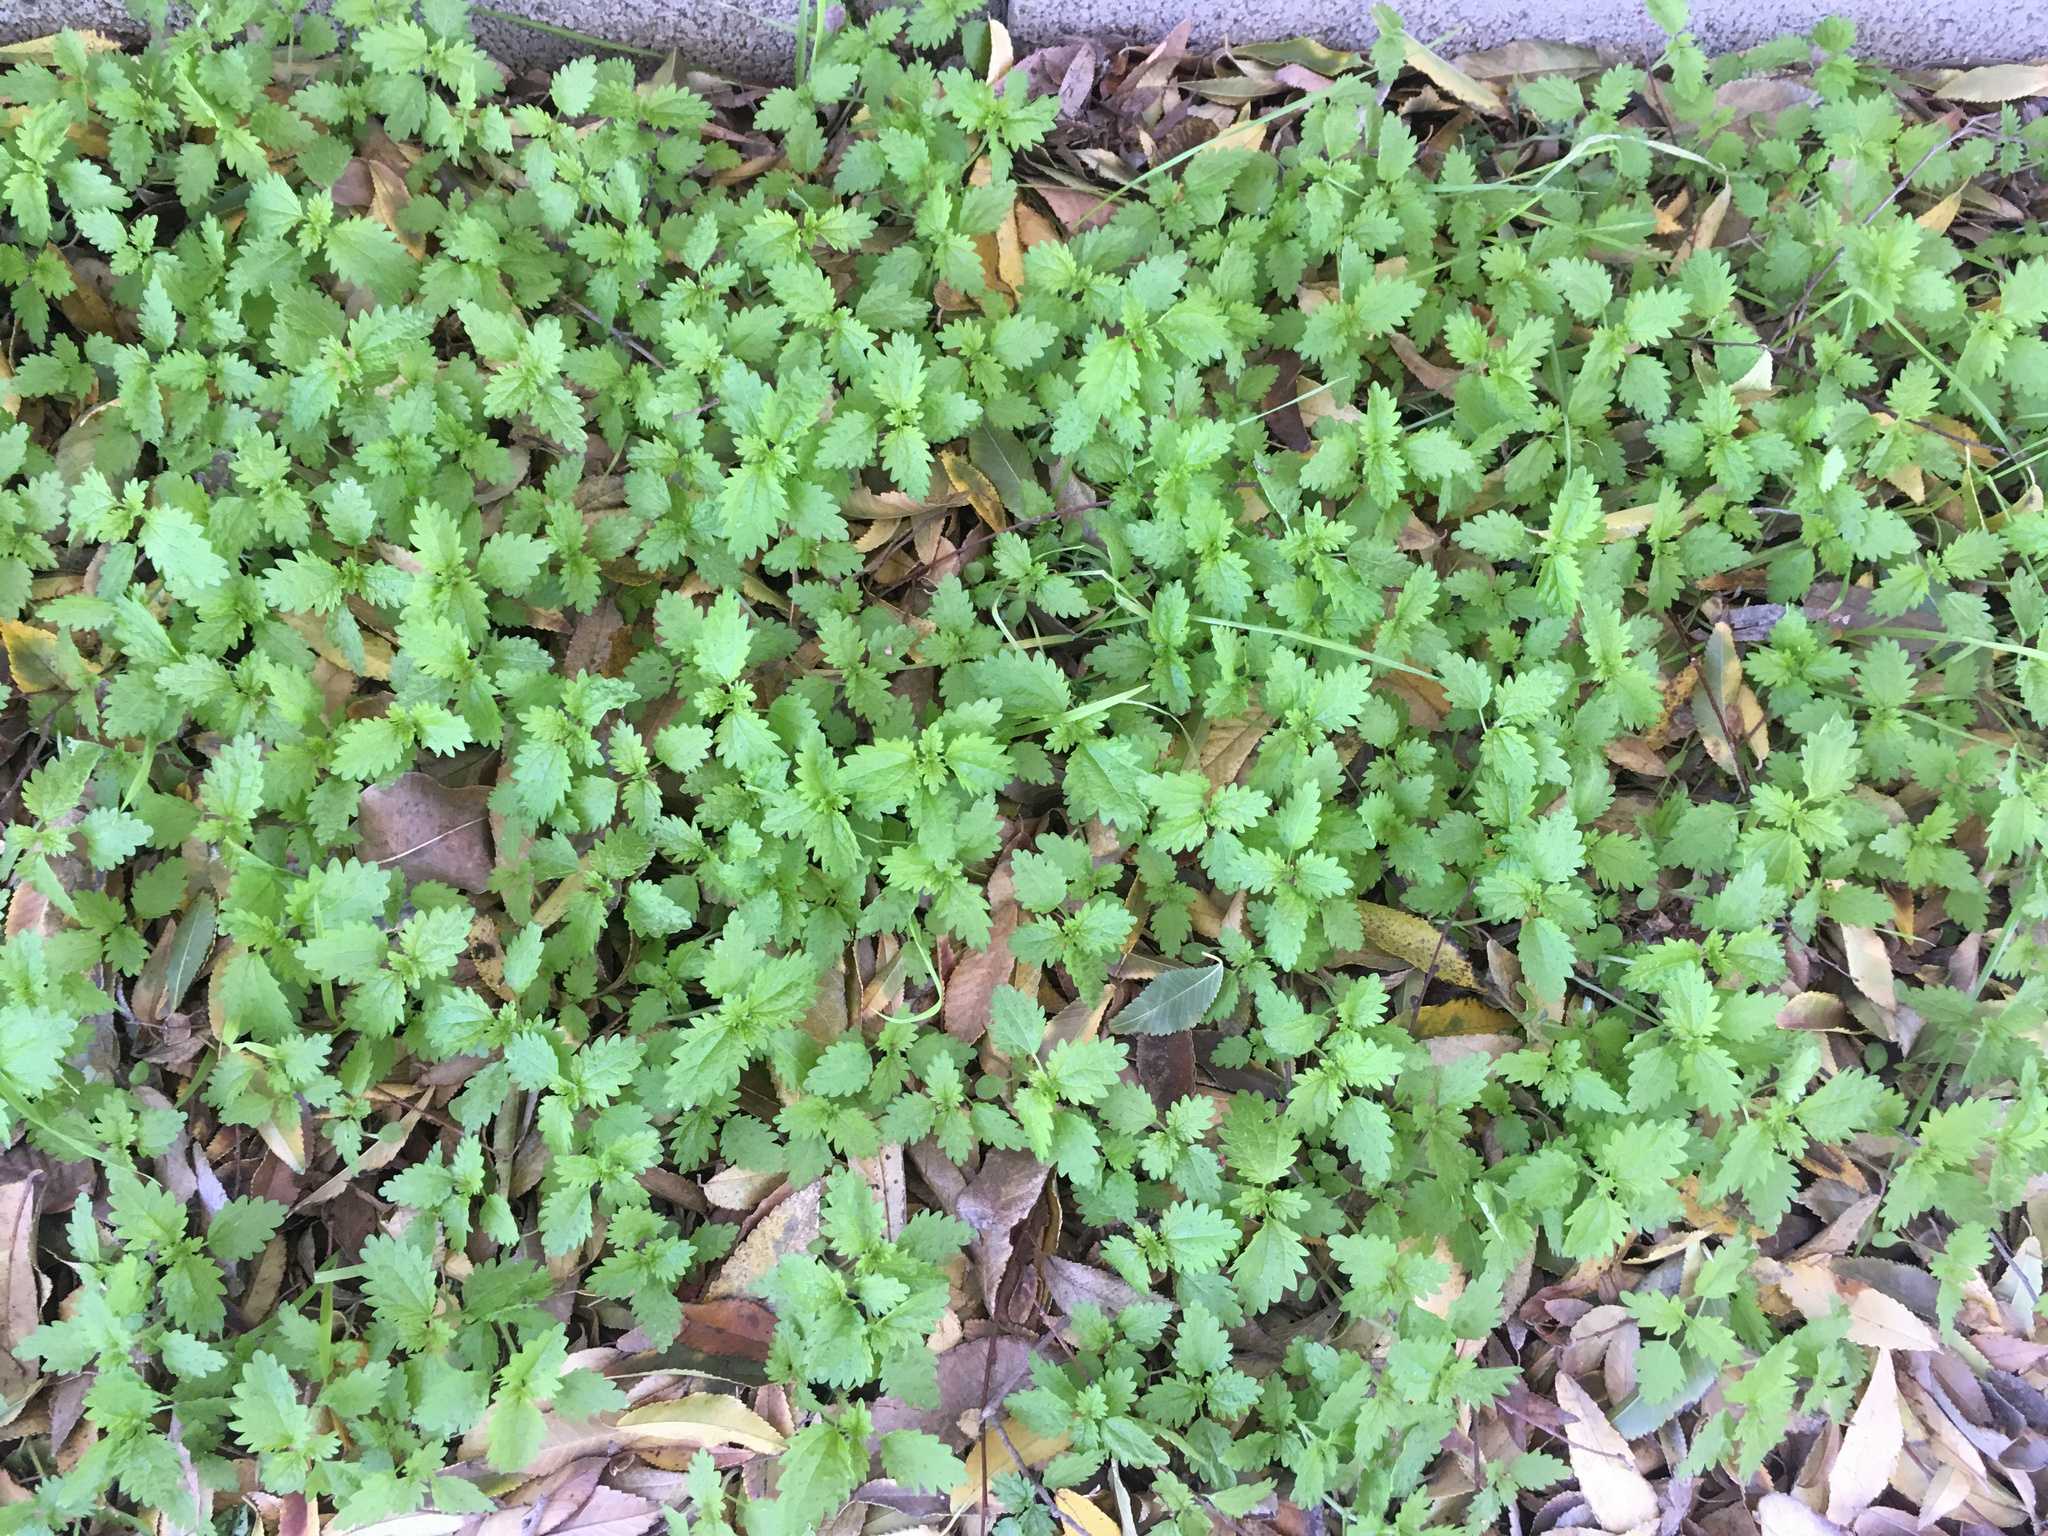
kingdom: Plantae
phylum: Tracheophyta
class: Magnoliopsida
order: Rosales
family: Urticaceae
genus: Urtica
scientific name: Urtica urens
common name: Dwarf nettle
